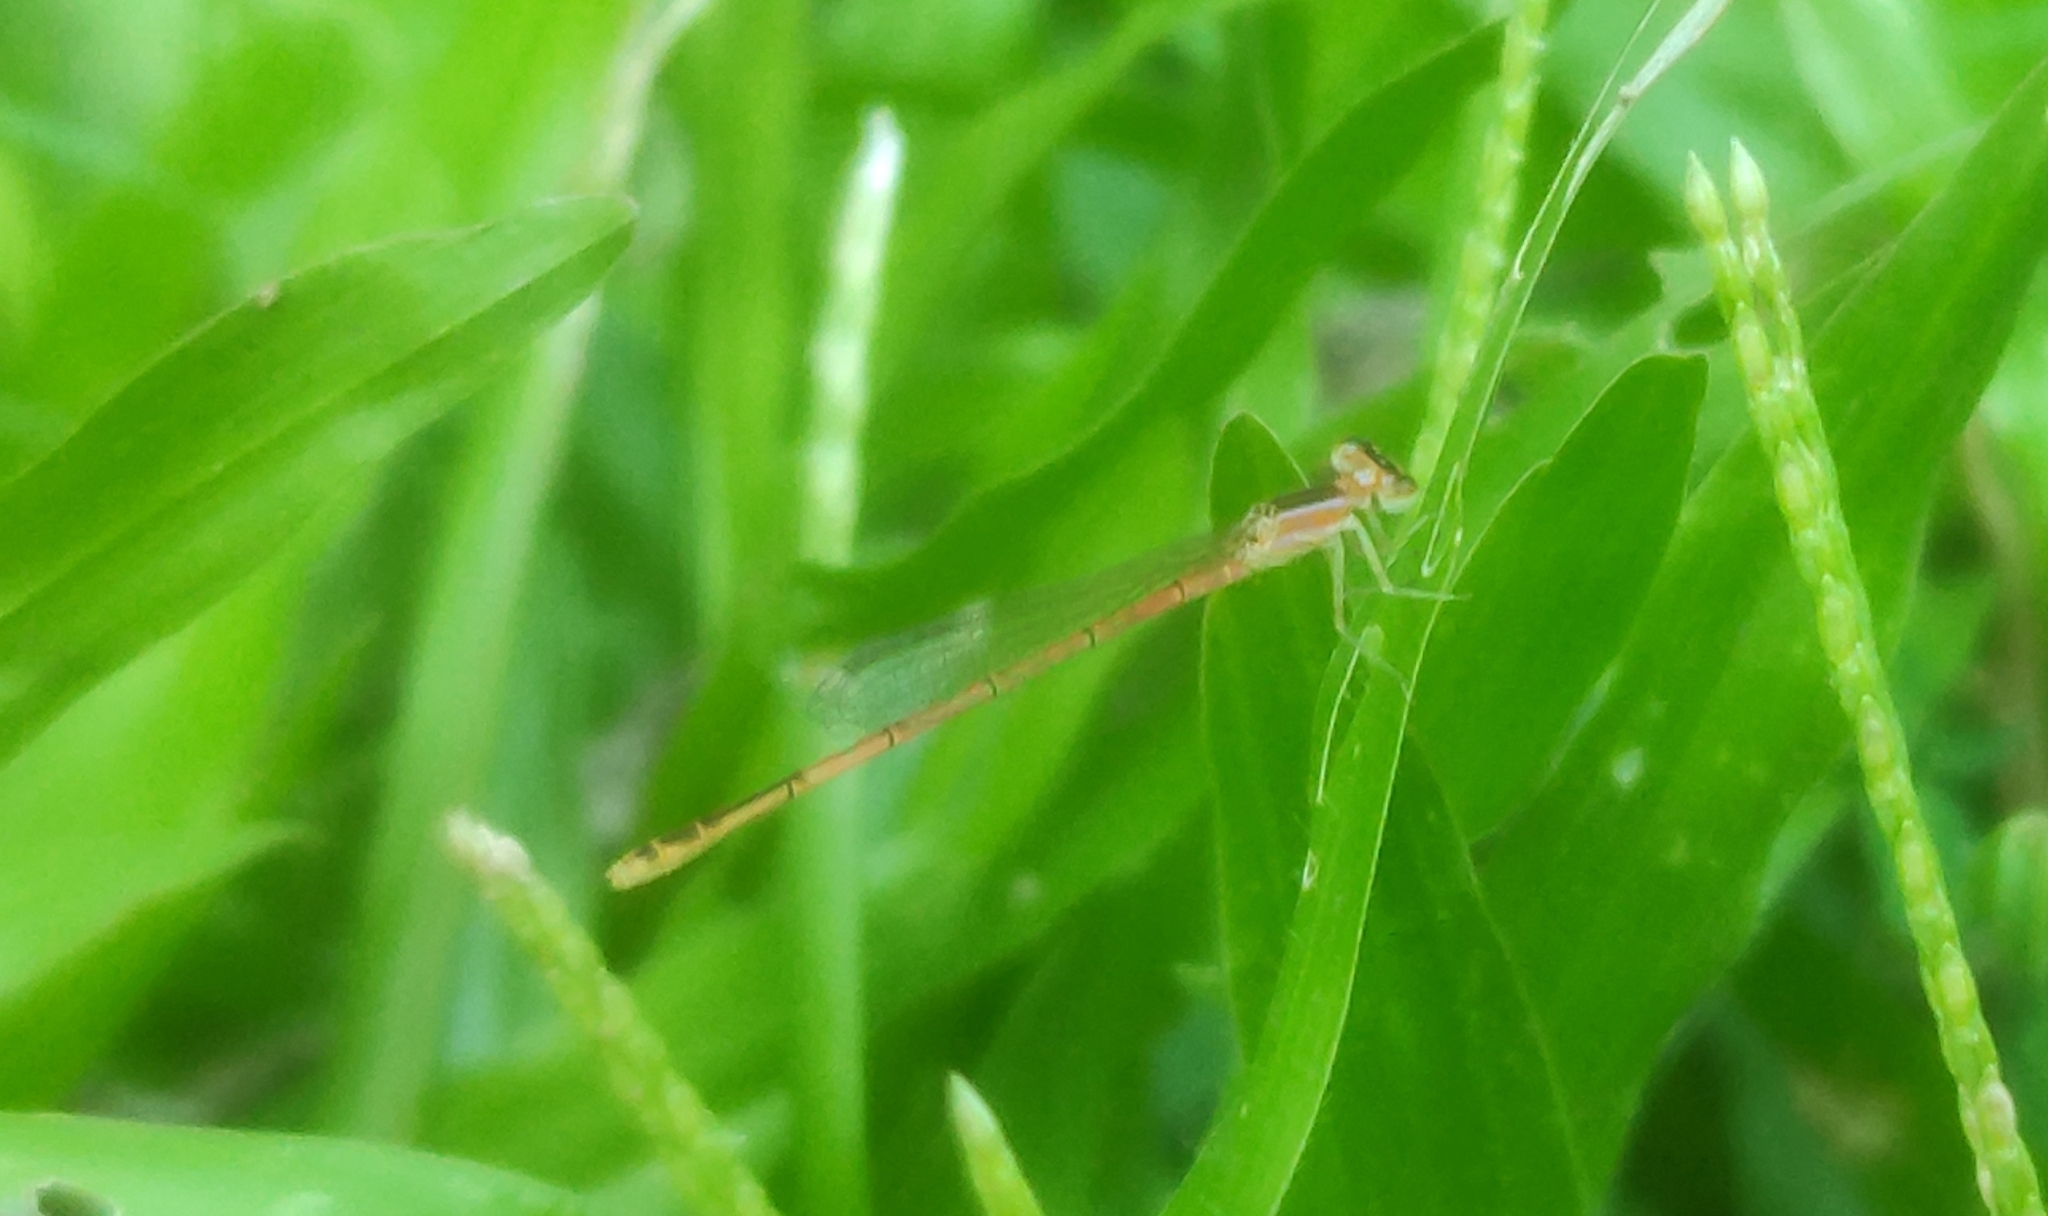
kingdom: Animalia
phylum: Arthropoda
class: Insecta
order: Odonata
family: Coenagrionidae
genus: Agriocnemis
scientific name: Agriocnemis pygmaea
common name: Pygmy wisp
